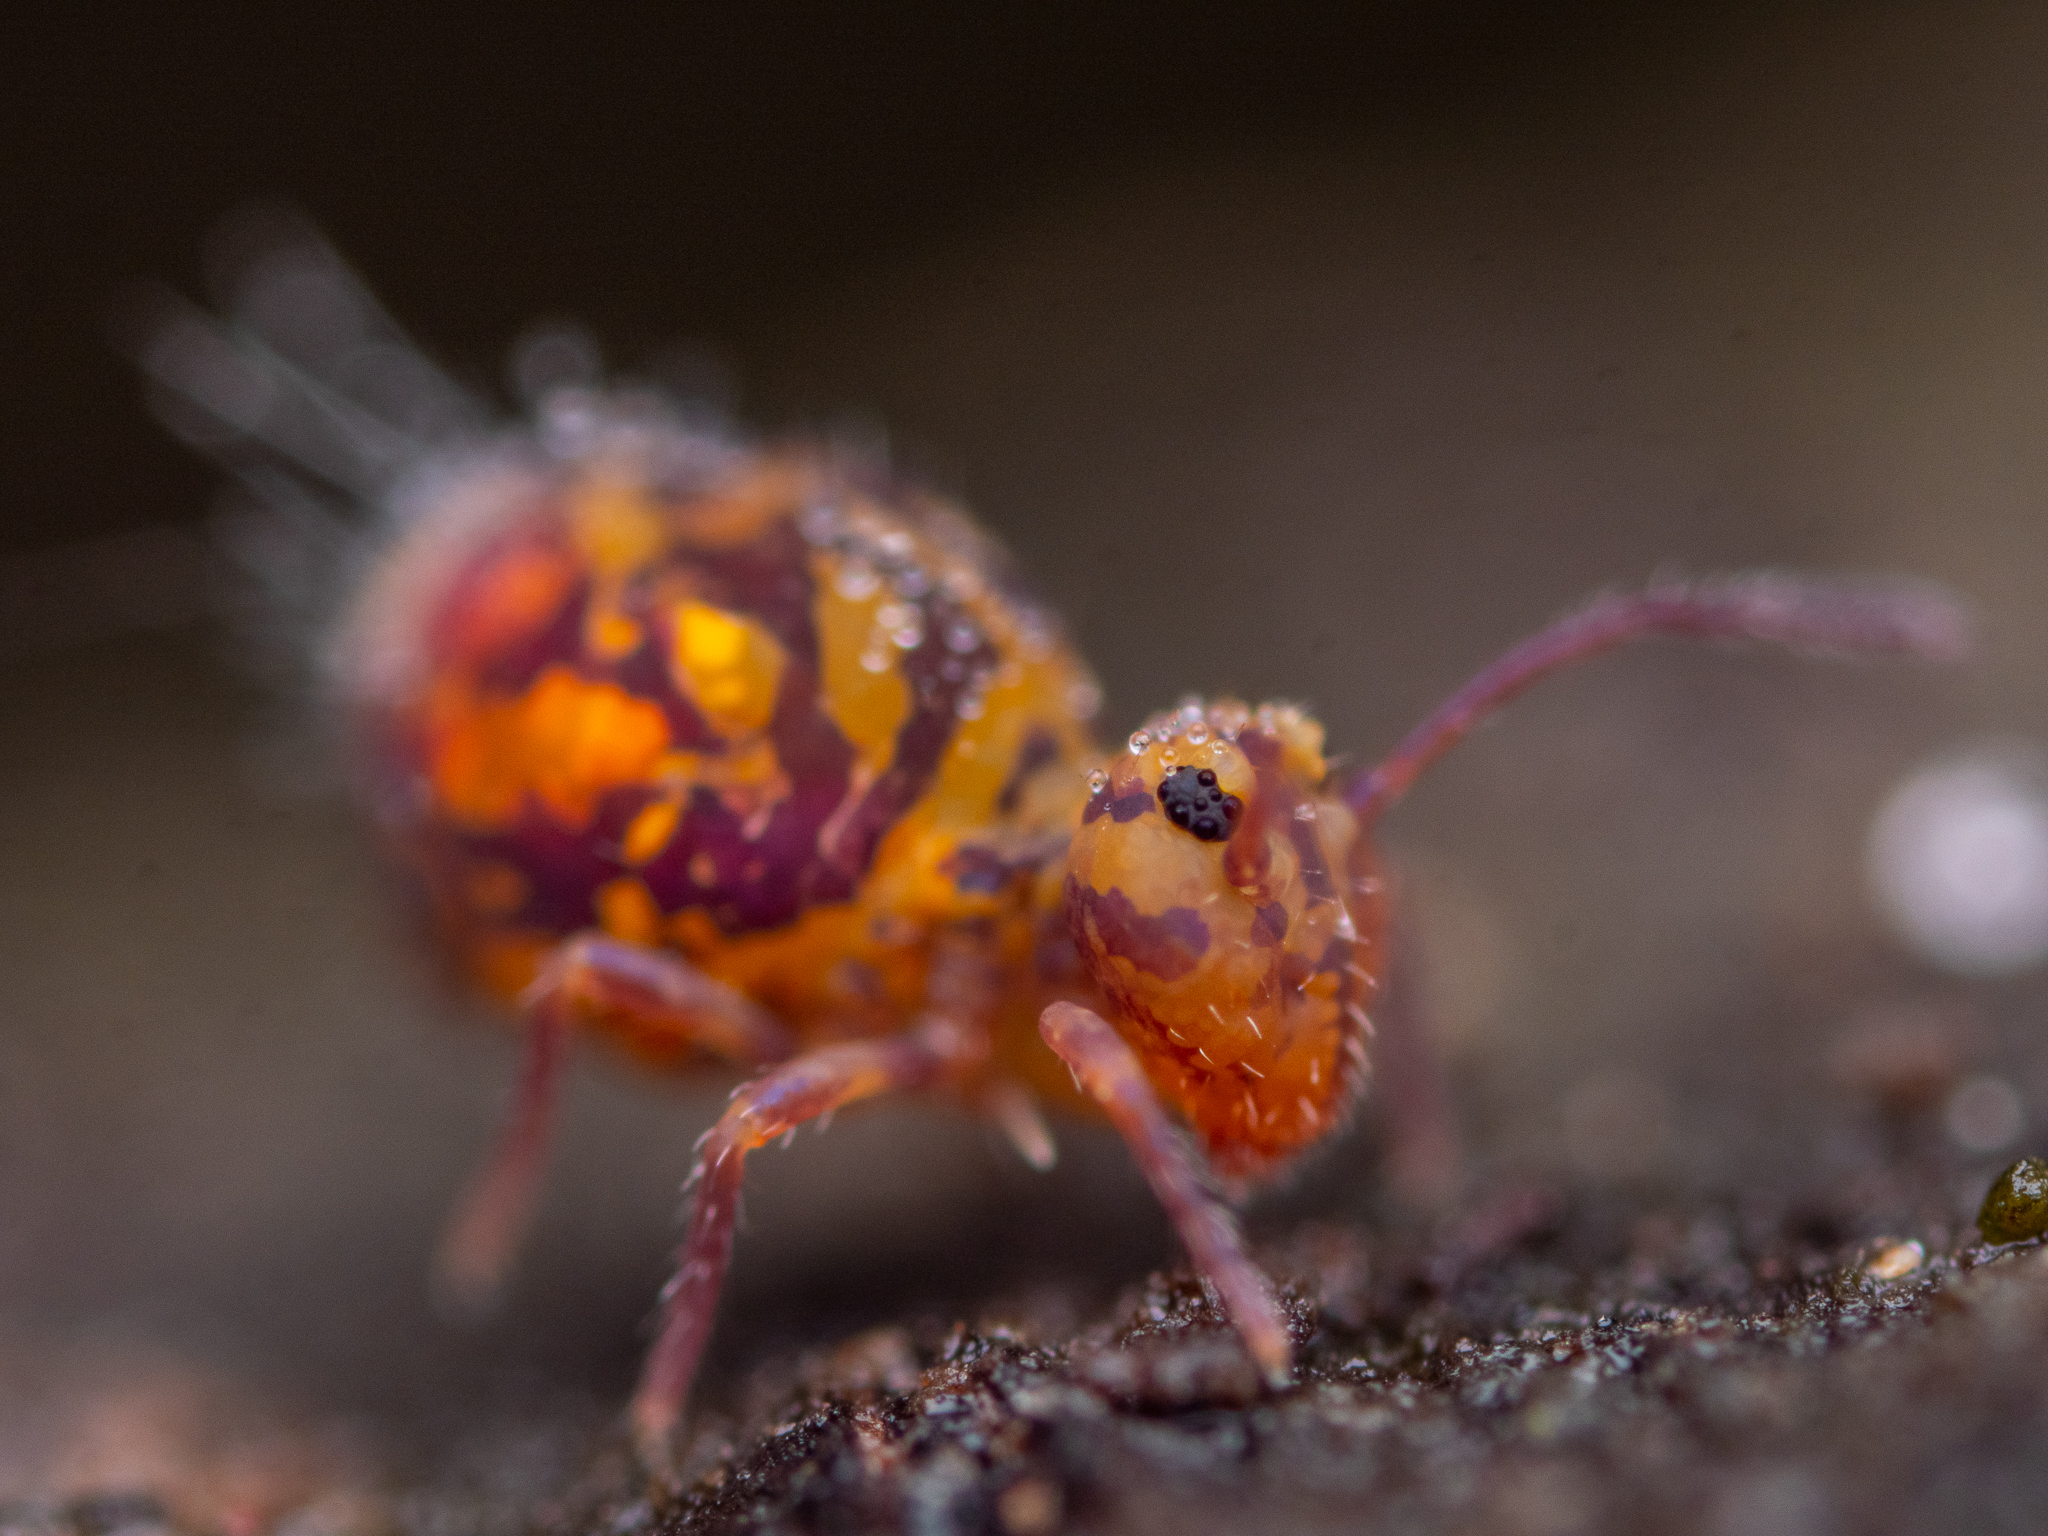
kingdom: Animalia
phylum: Arthropoda
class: Collembola
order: Symphypleona
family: Dicyrtomidae
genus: Dicyrtomina
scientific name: Dicyrtomina ornata
